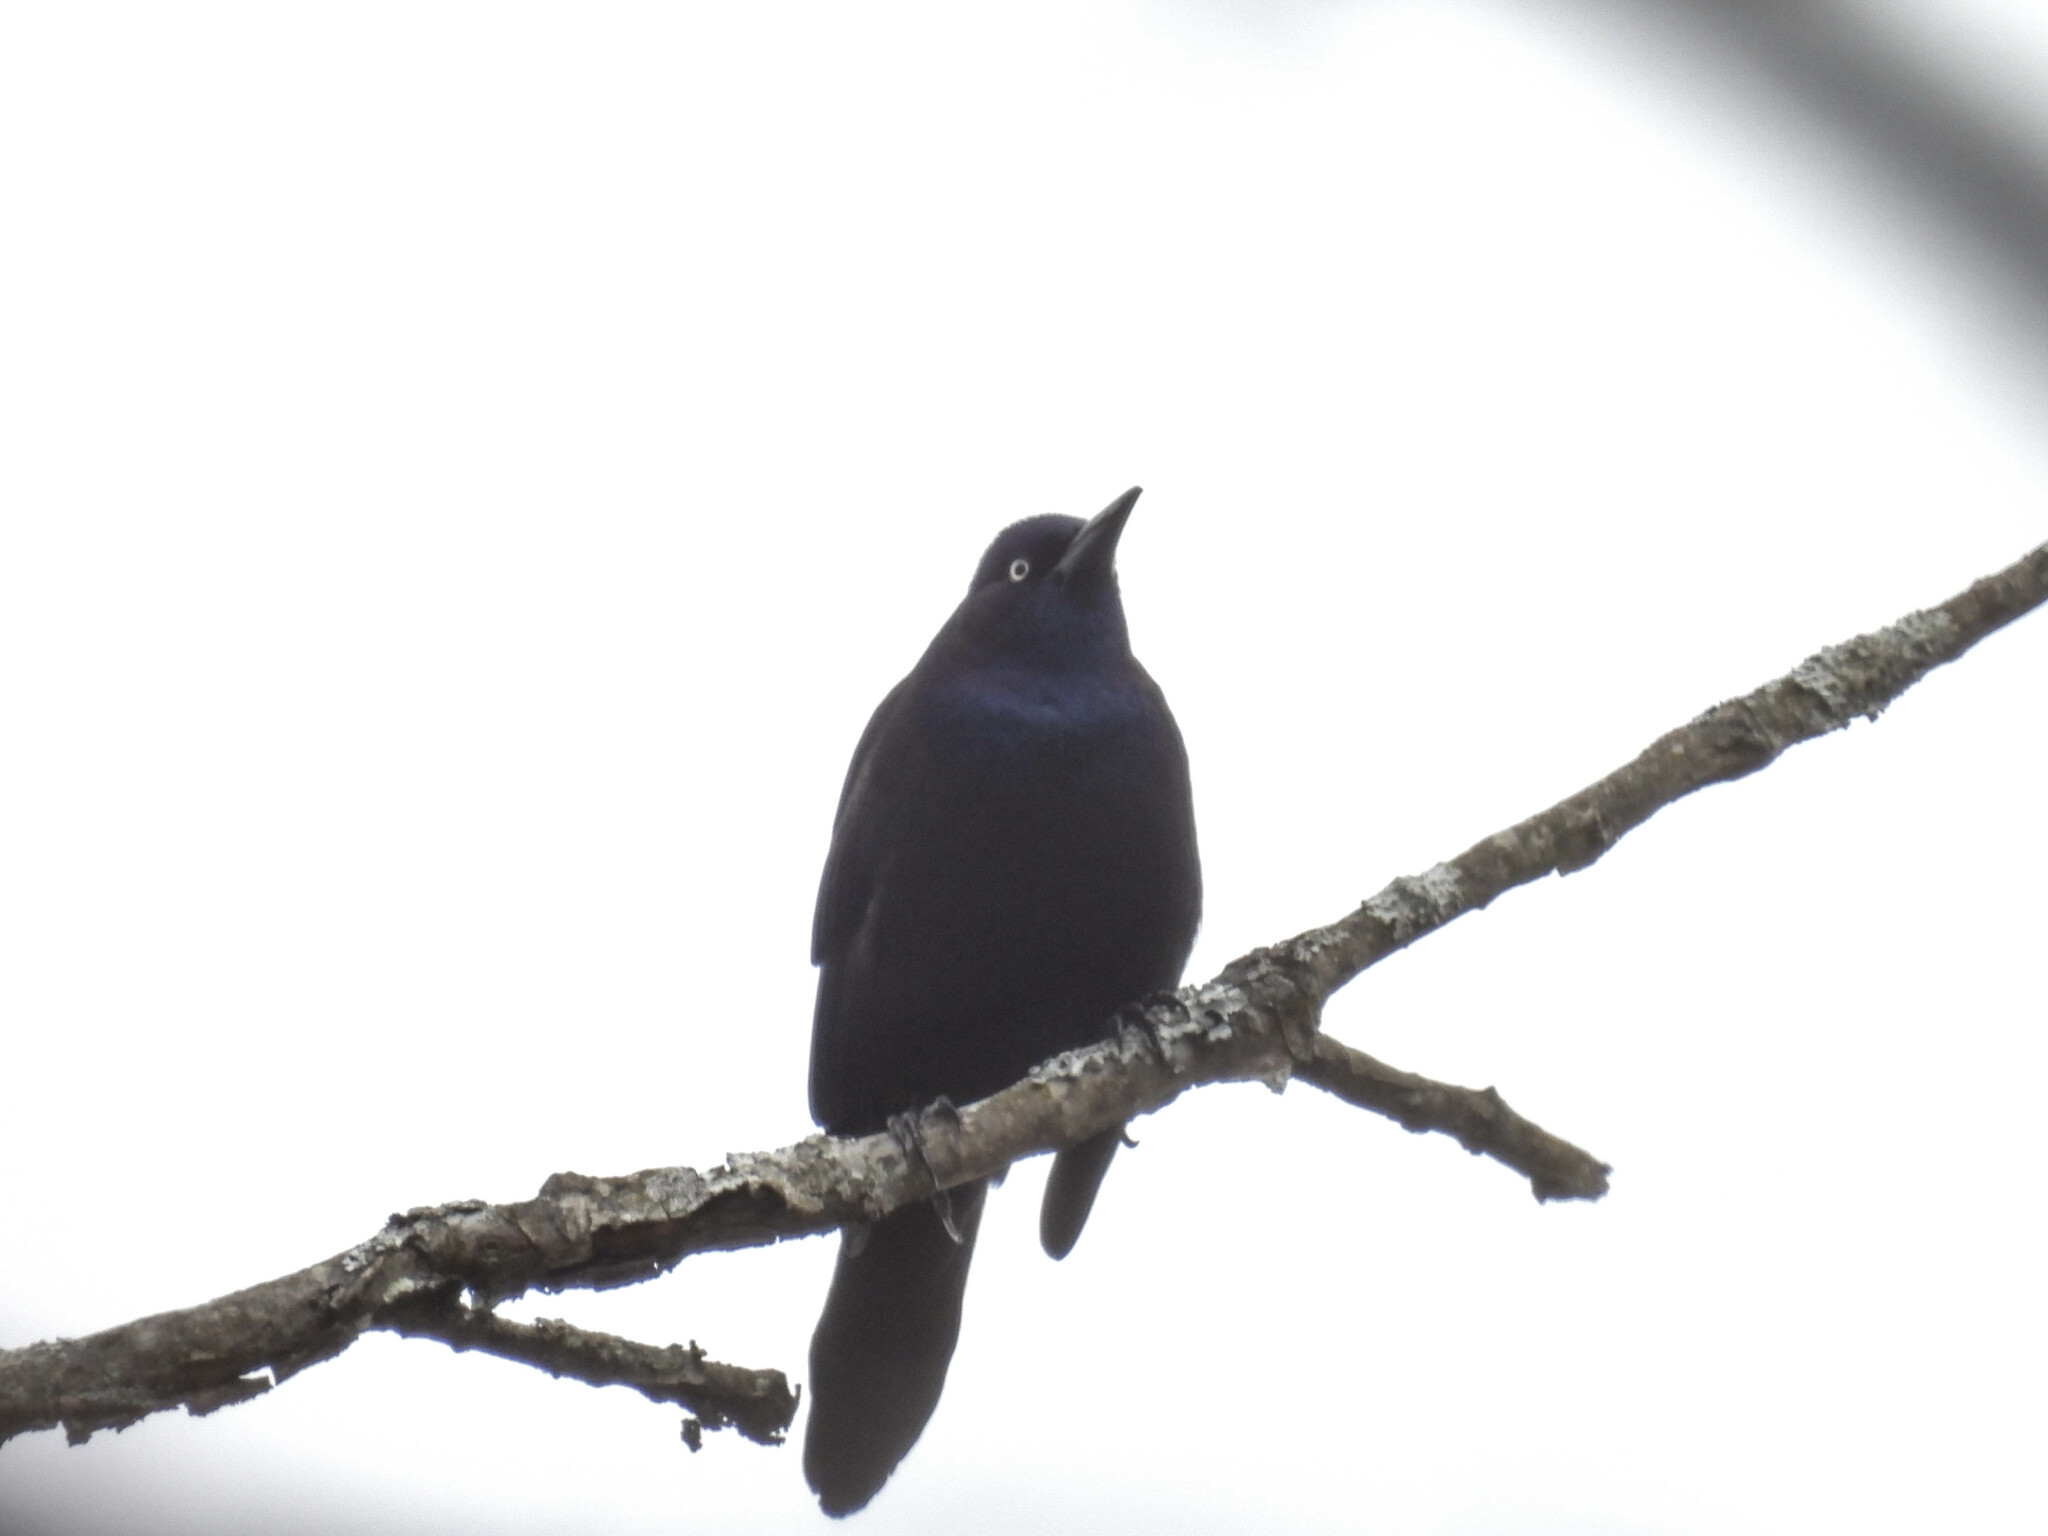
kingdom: Animalia
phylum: Chordata
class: Aves
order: Passeriformes
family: Icteridae
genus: Quiscalus
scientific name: Quiscalus quiscula
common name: Common grackle
